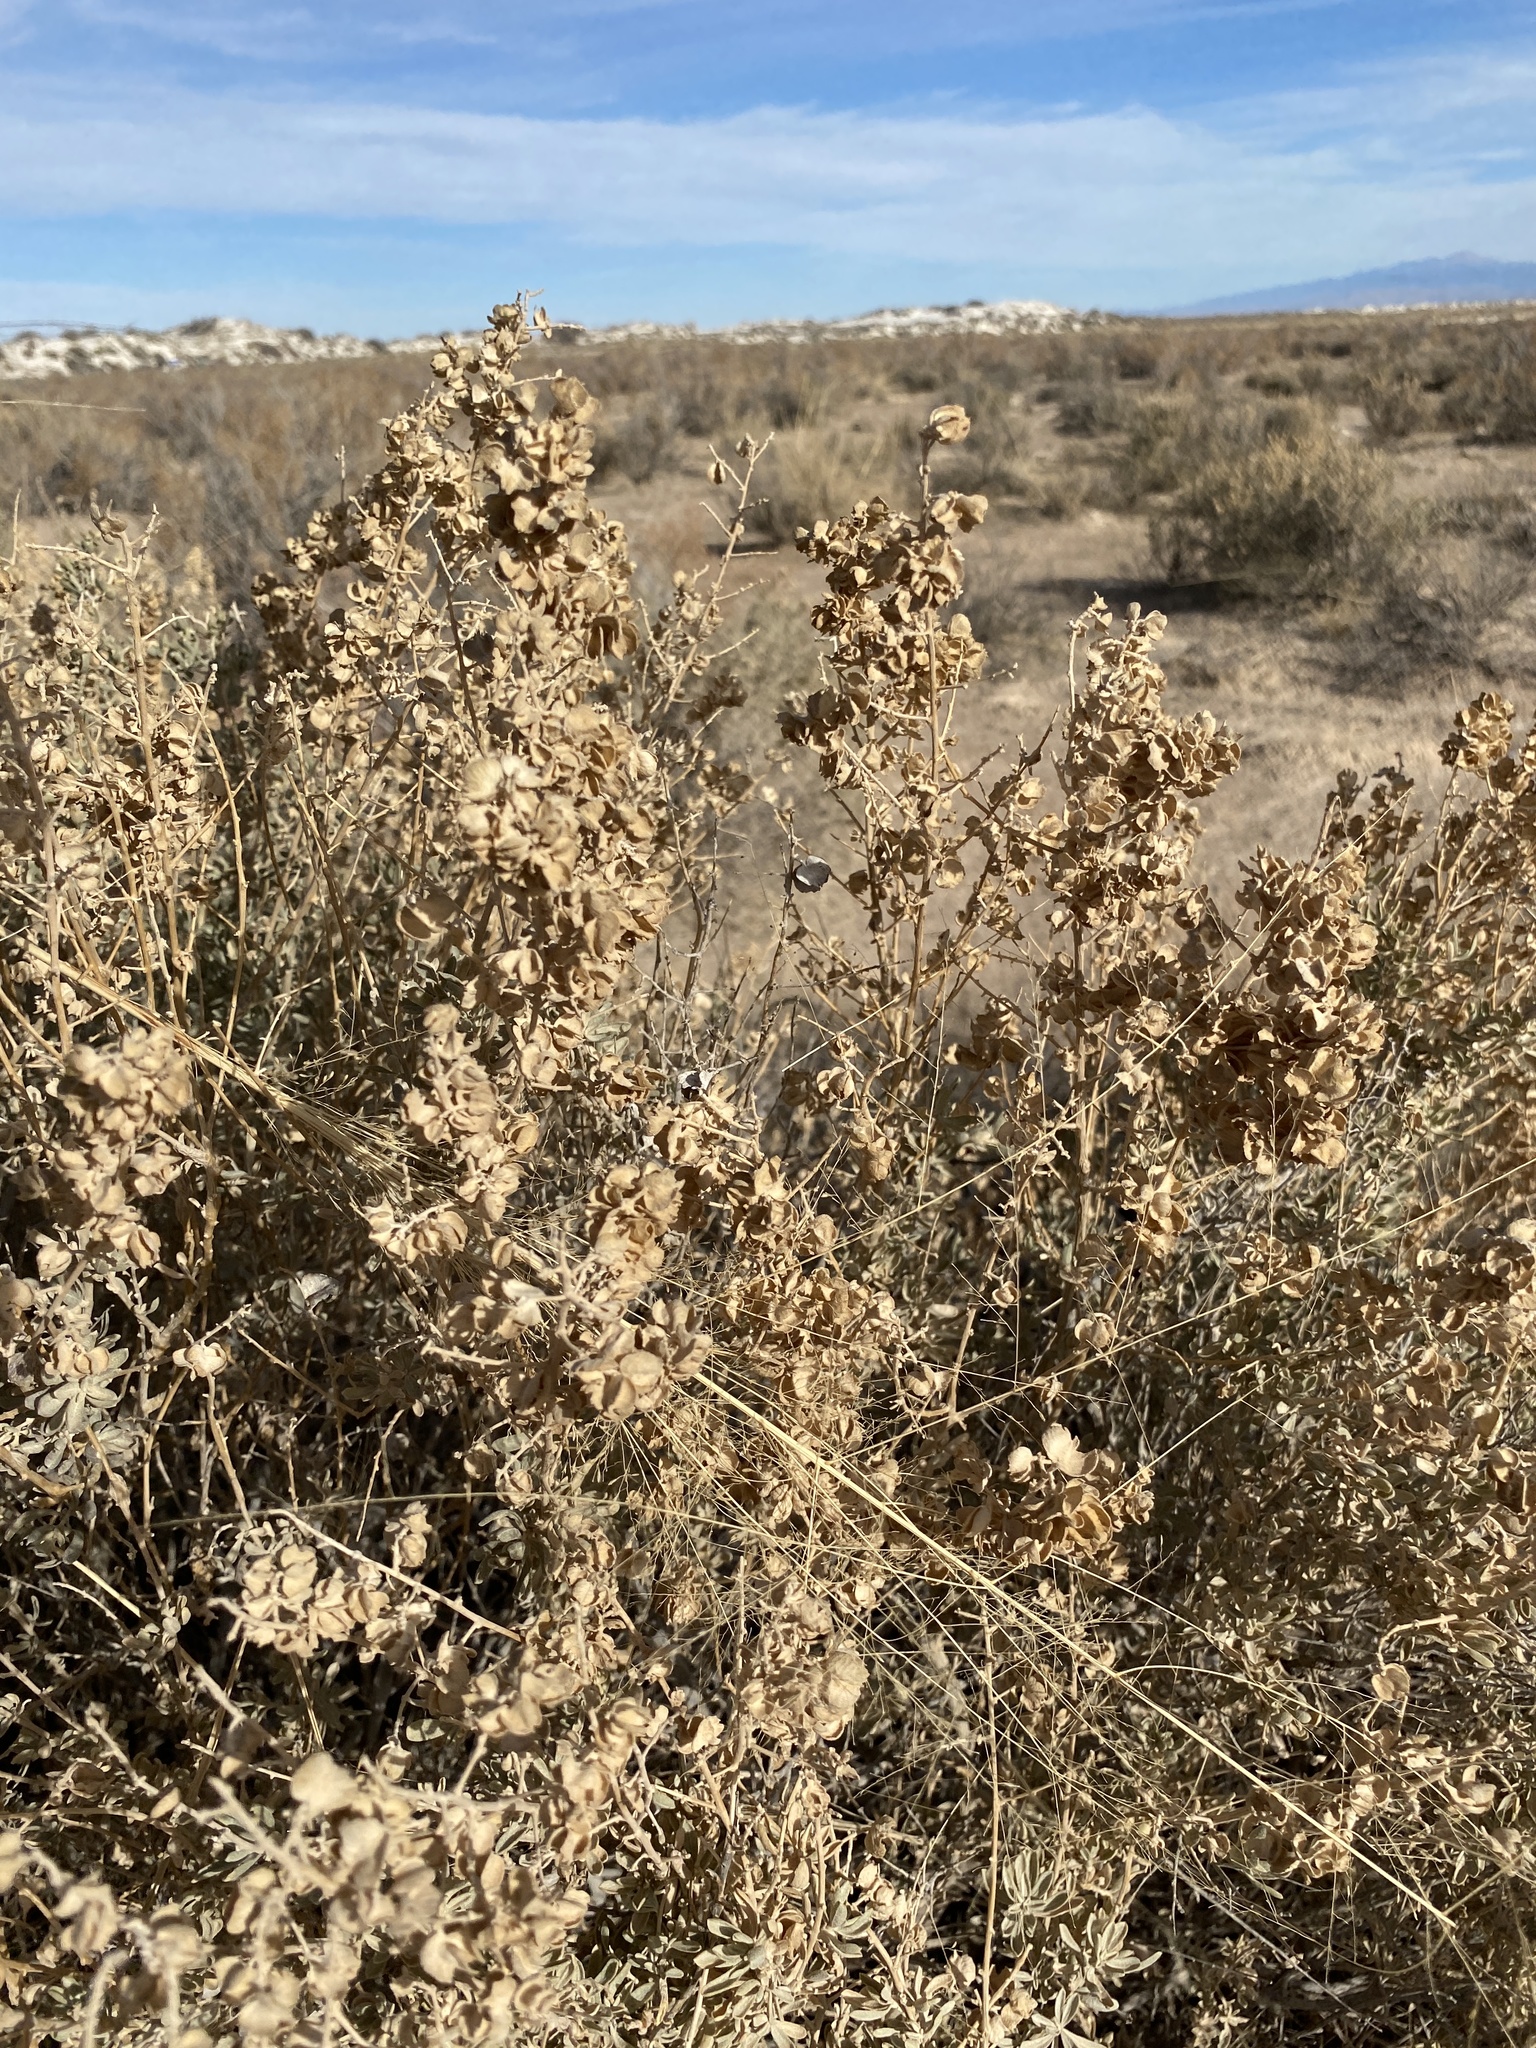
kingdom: Plantae
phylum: Tracheophyta
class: Magnoliopsida
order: Caryophyllales
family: Amaranthaceae
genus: Atriplex
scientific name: Atriplex canescens
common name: Four-wing saltbush
